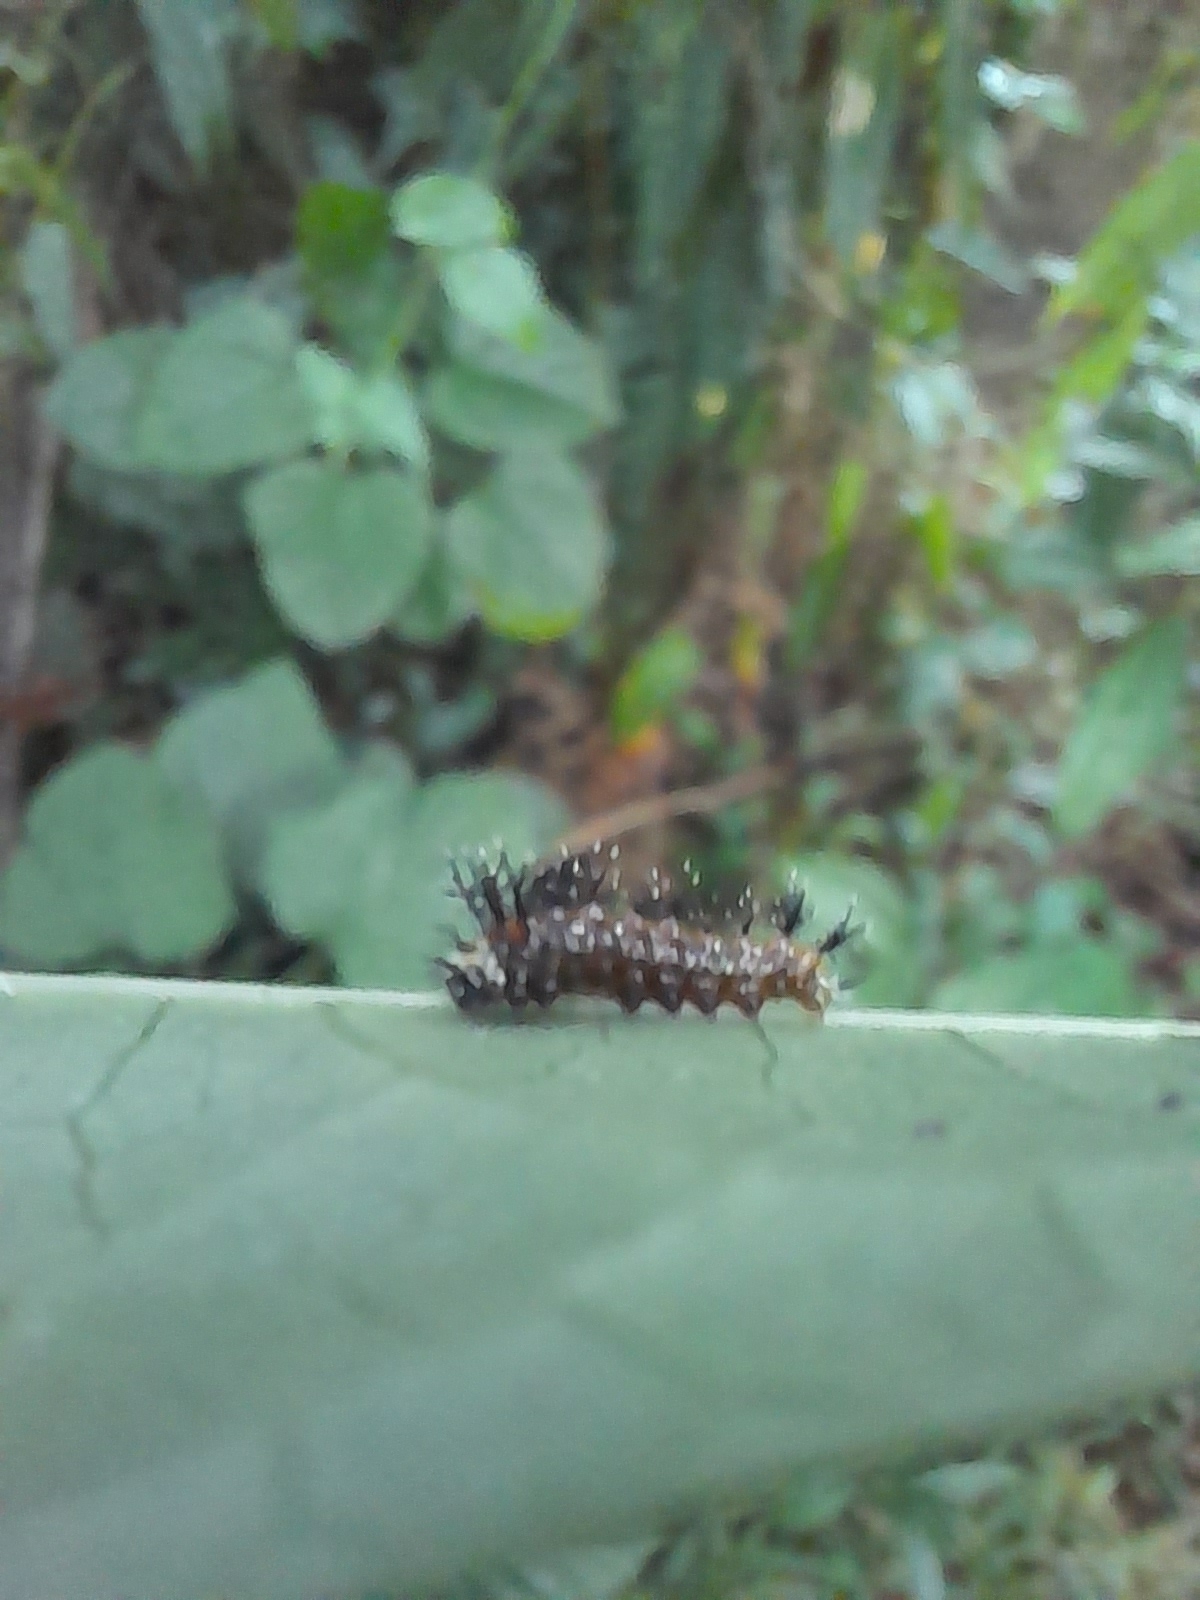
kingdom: Animalia
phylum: Arthropoda
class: Insecta
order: Lepidoptera
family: Nymphalidae
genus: Kallima
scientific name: Kallima sylvia
